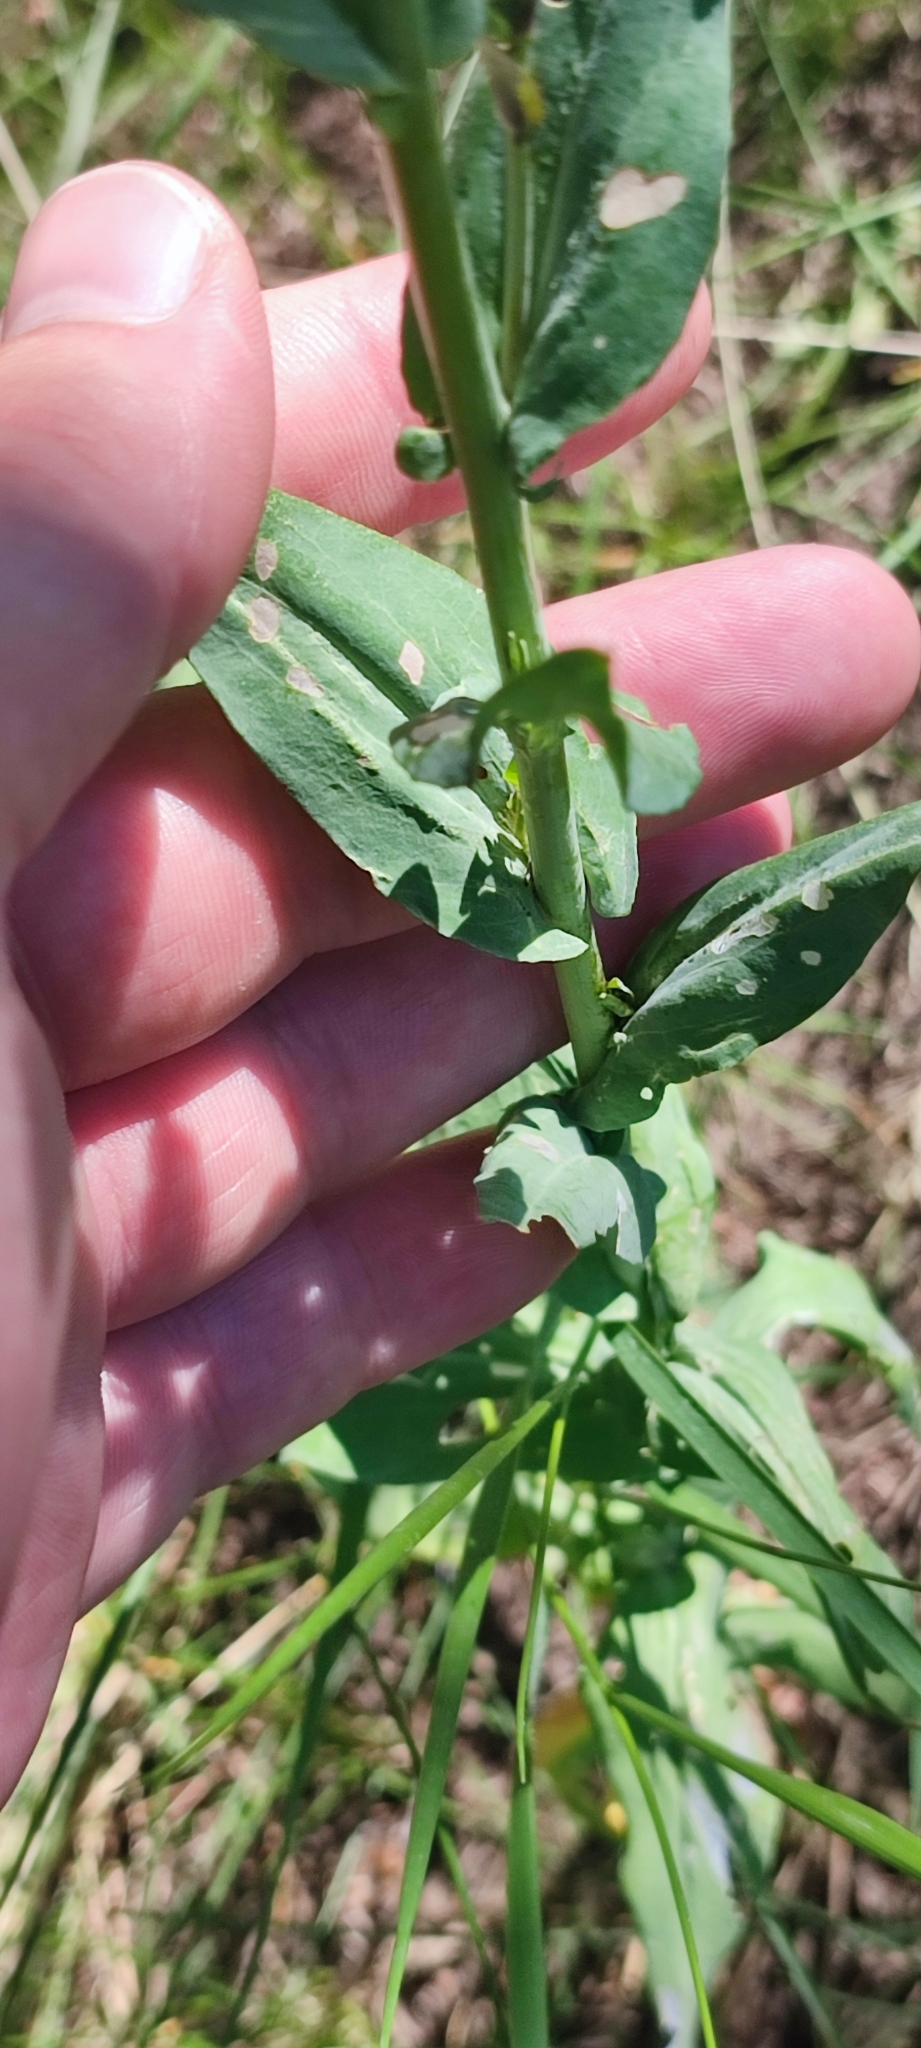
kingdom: Plantae
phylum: Tracheophyta
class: Magnoliopsida
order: Brassicales
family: Brassicaceae
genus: Turritis
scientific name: Turritis glabra
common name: Tower rockcress
